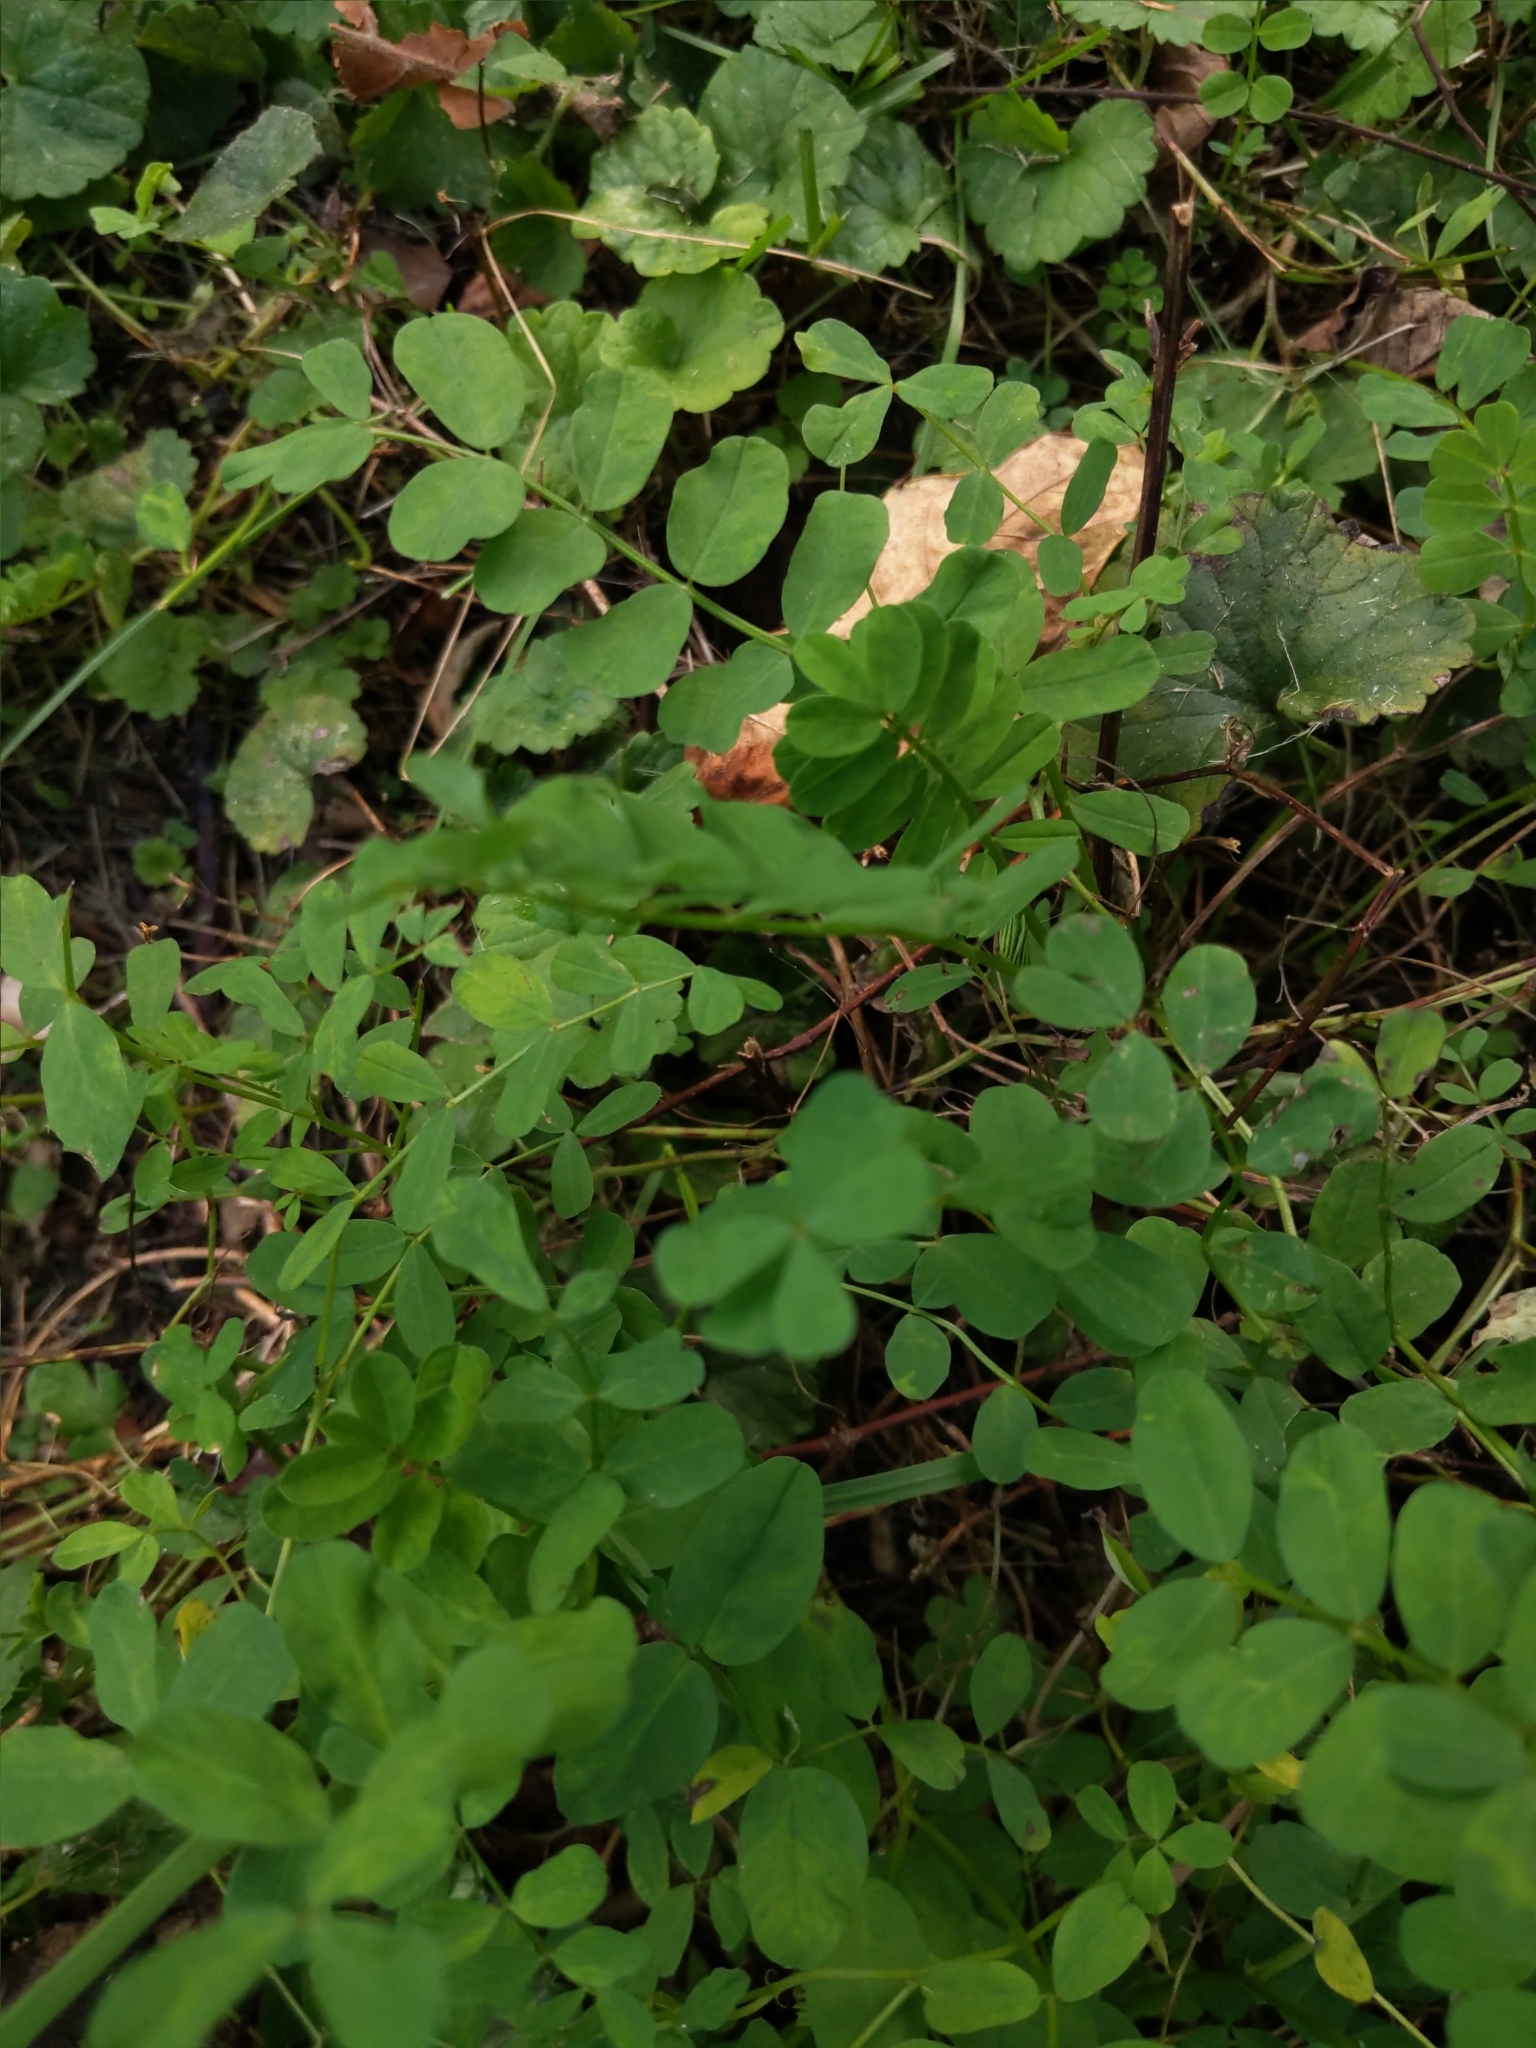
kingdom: Plantae
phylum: Tracheophyta
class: Magnoliopsida
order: Fabales
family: Fabaceae
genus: Coronilla
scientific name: Coronilla varia
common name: Crownvetch
